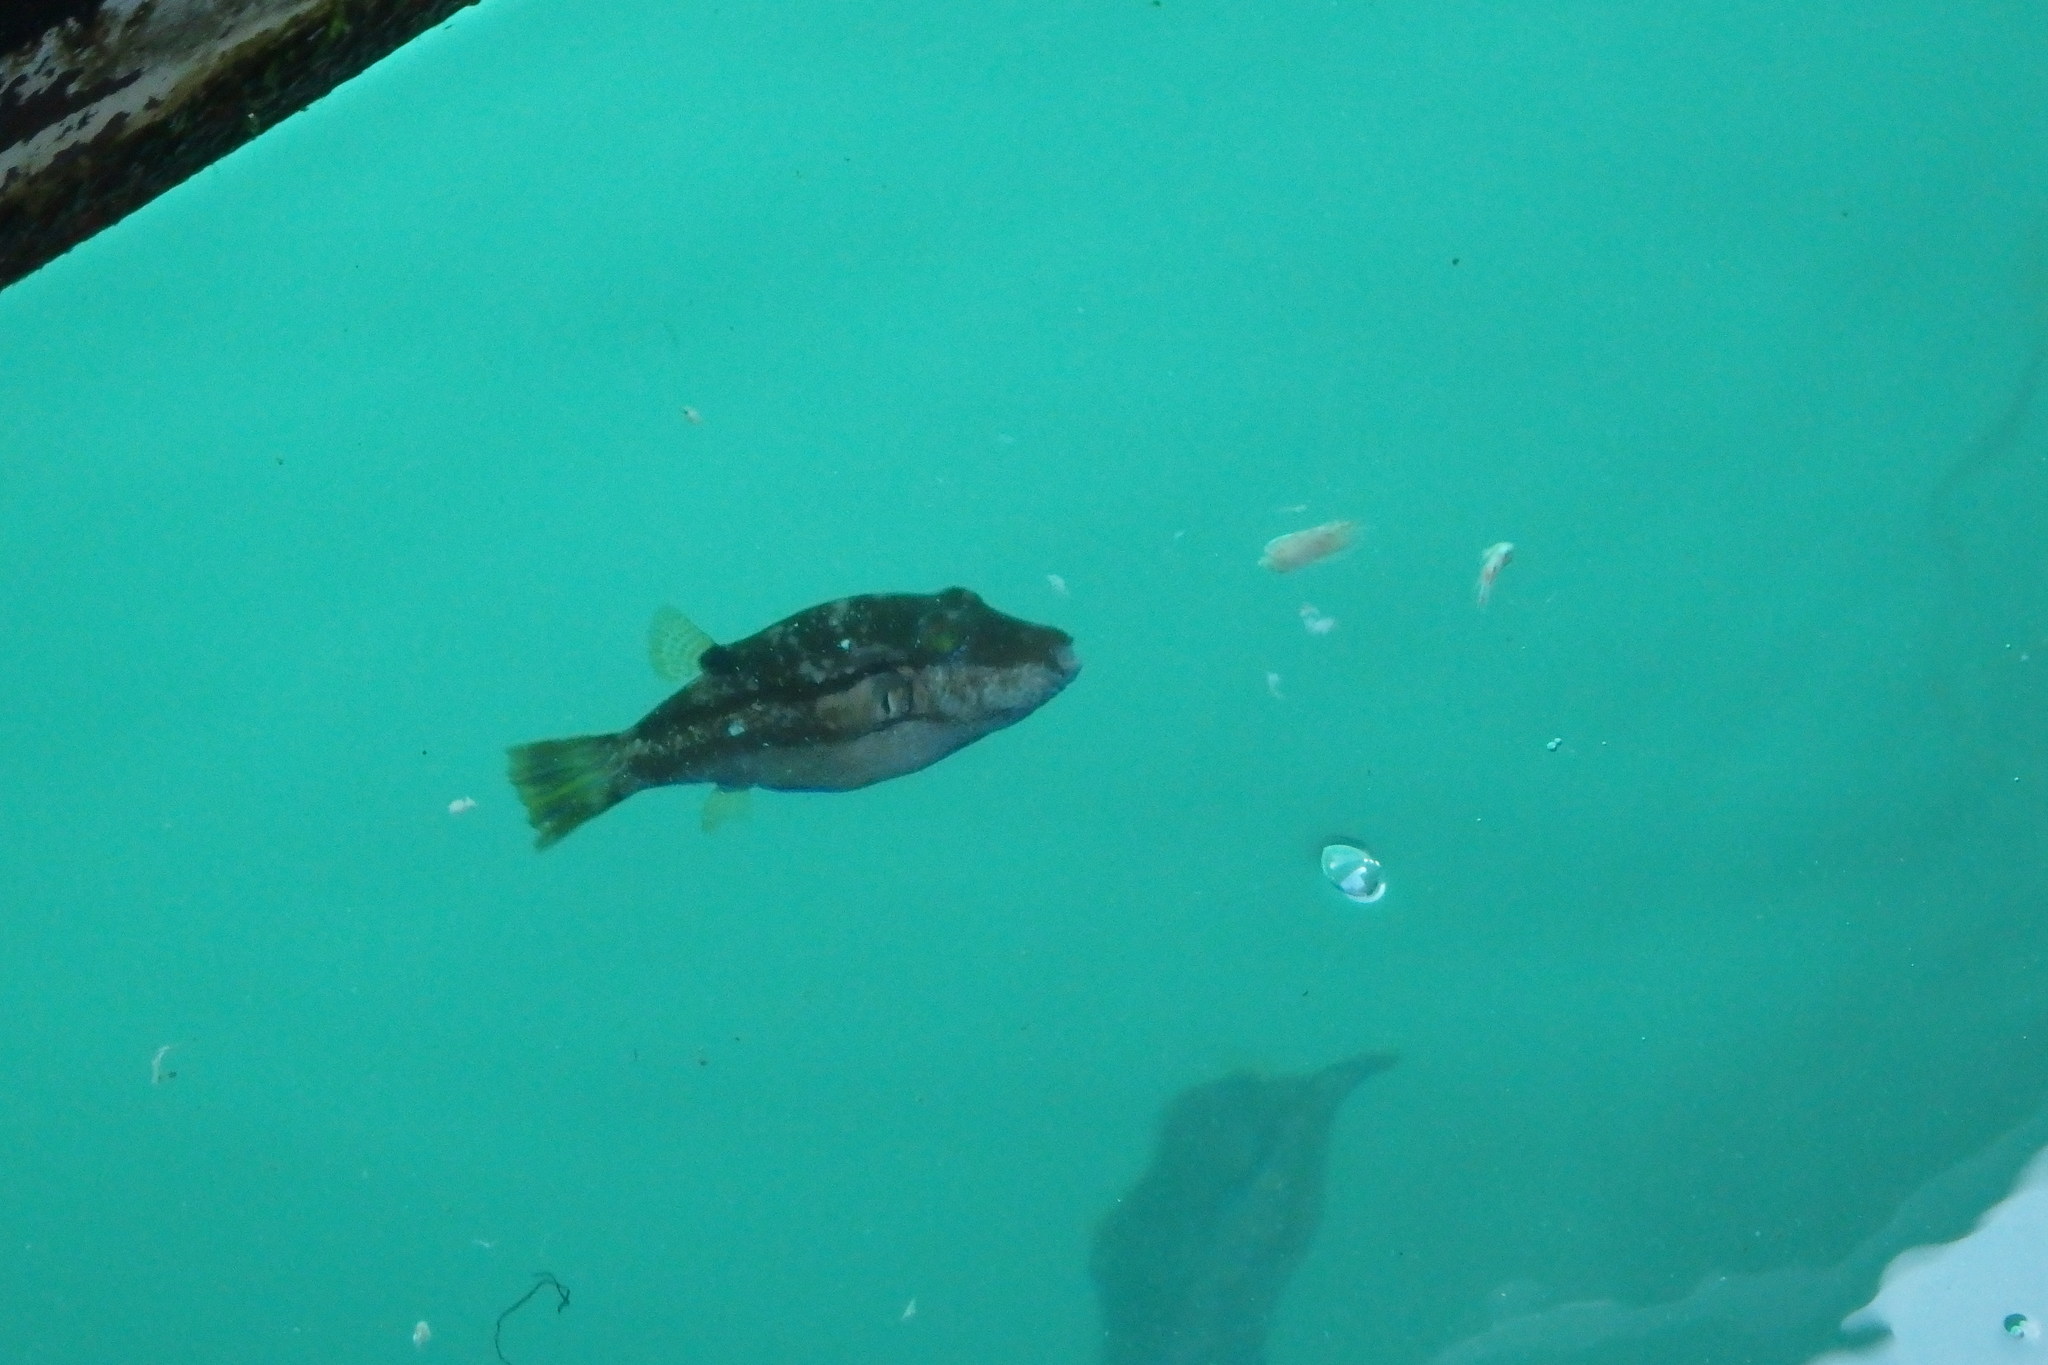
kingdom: Animalia
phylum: Chordata
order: Tetraodontiformes
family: Tetraodontidae
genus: Canthigaster
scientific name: Canthigaster rivulata
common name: Brown-lined puffer
